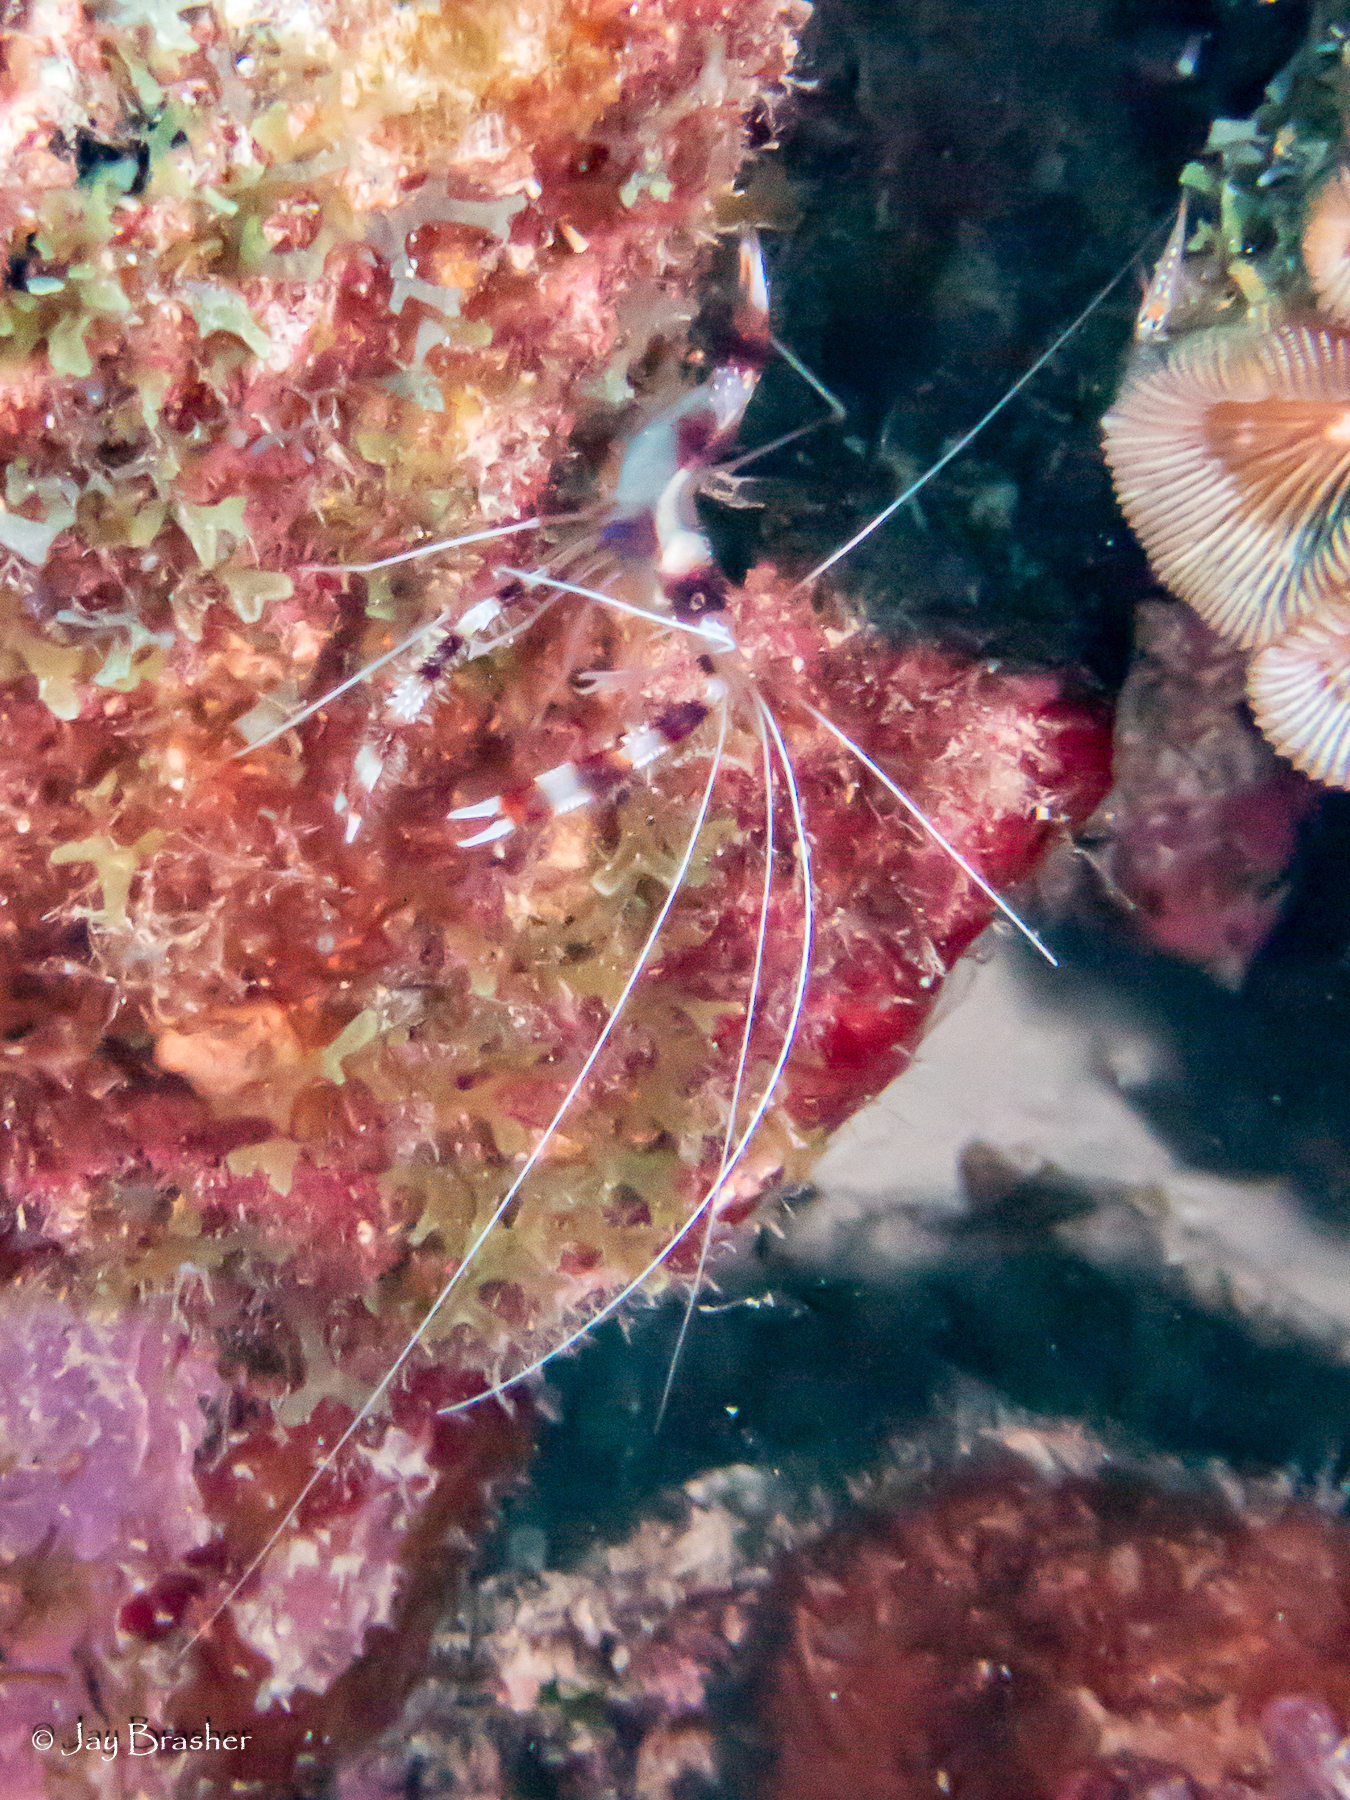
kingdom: Animalia
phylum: Arthropoda
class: Malacostraca
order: Decapoda
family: Stenopodidae
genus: Stenopus
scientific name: Stenopus hispidus
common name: Banded coral shrimp
